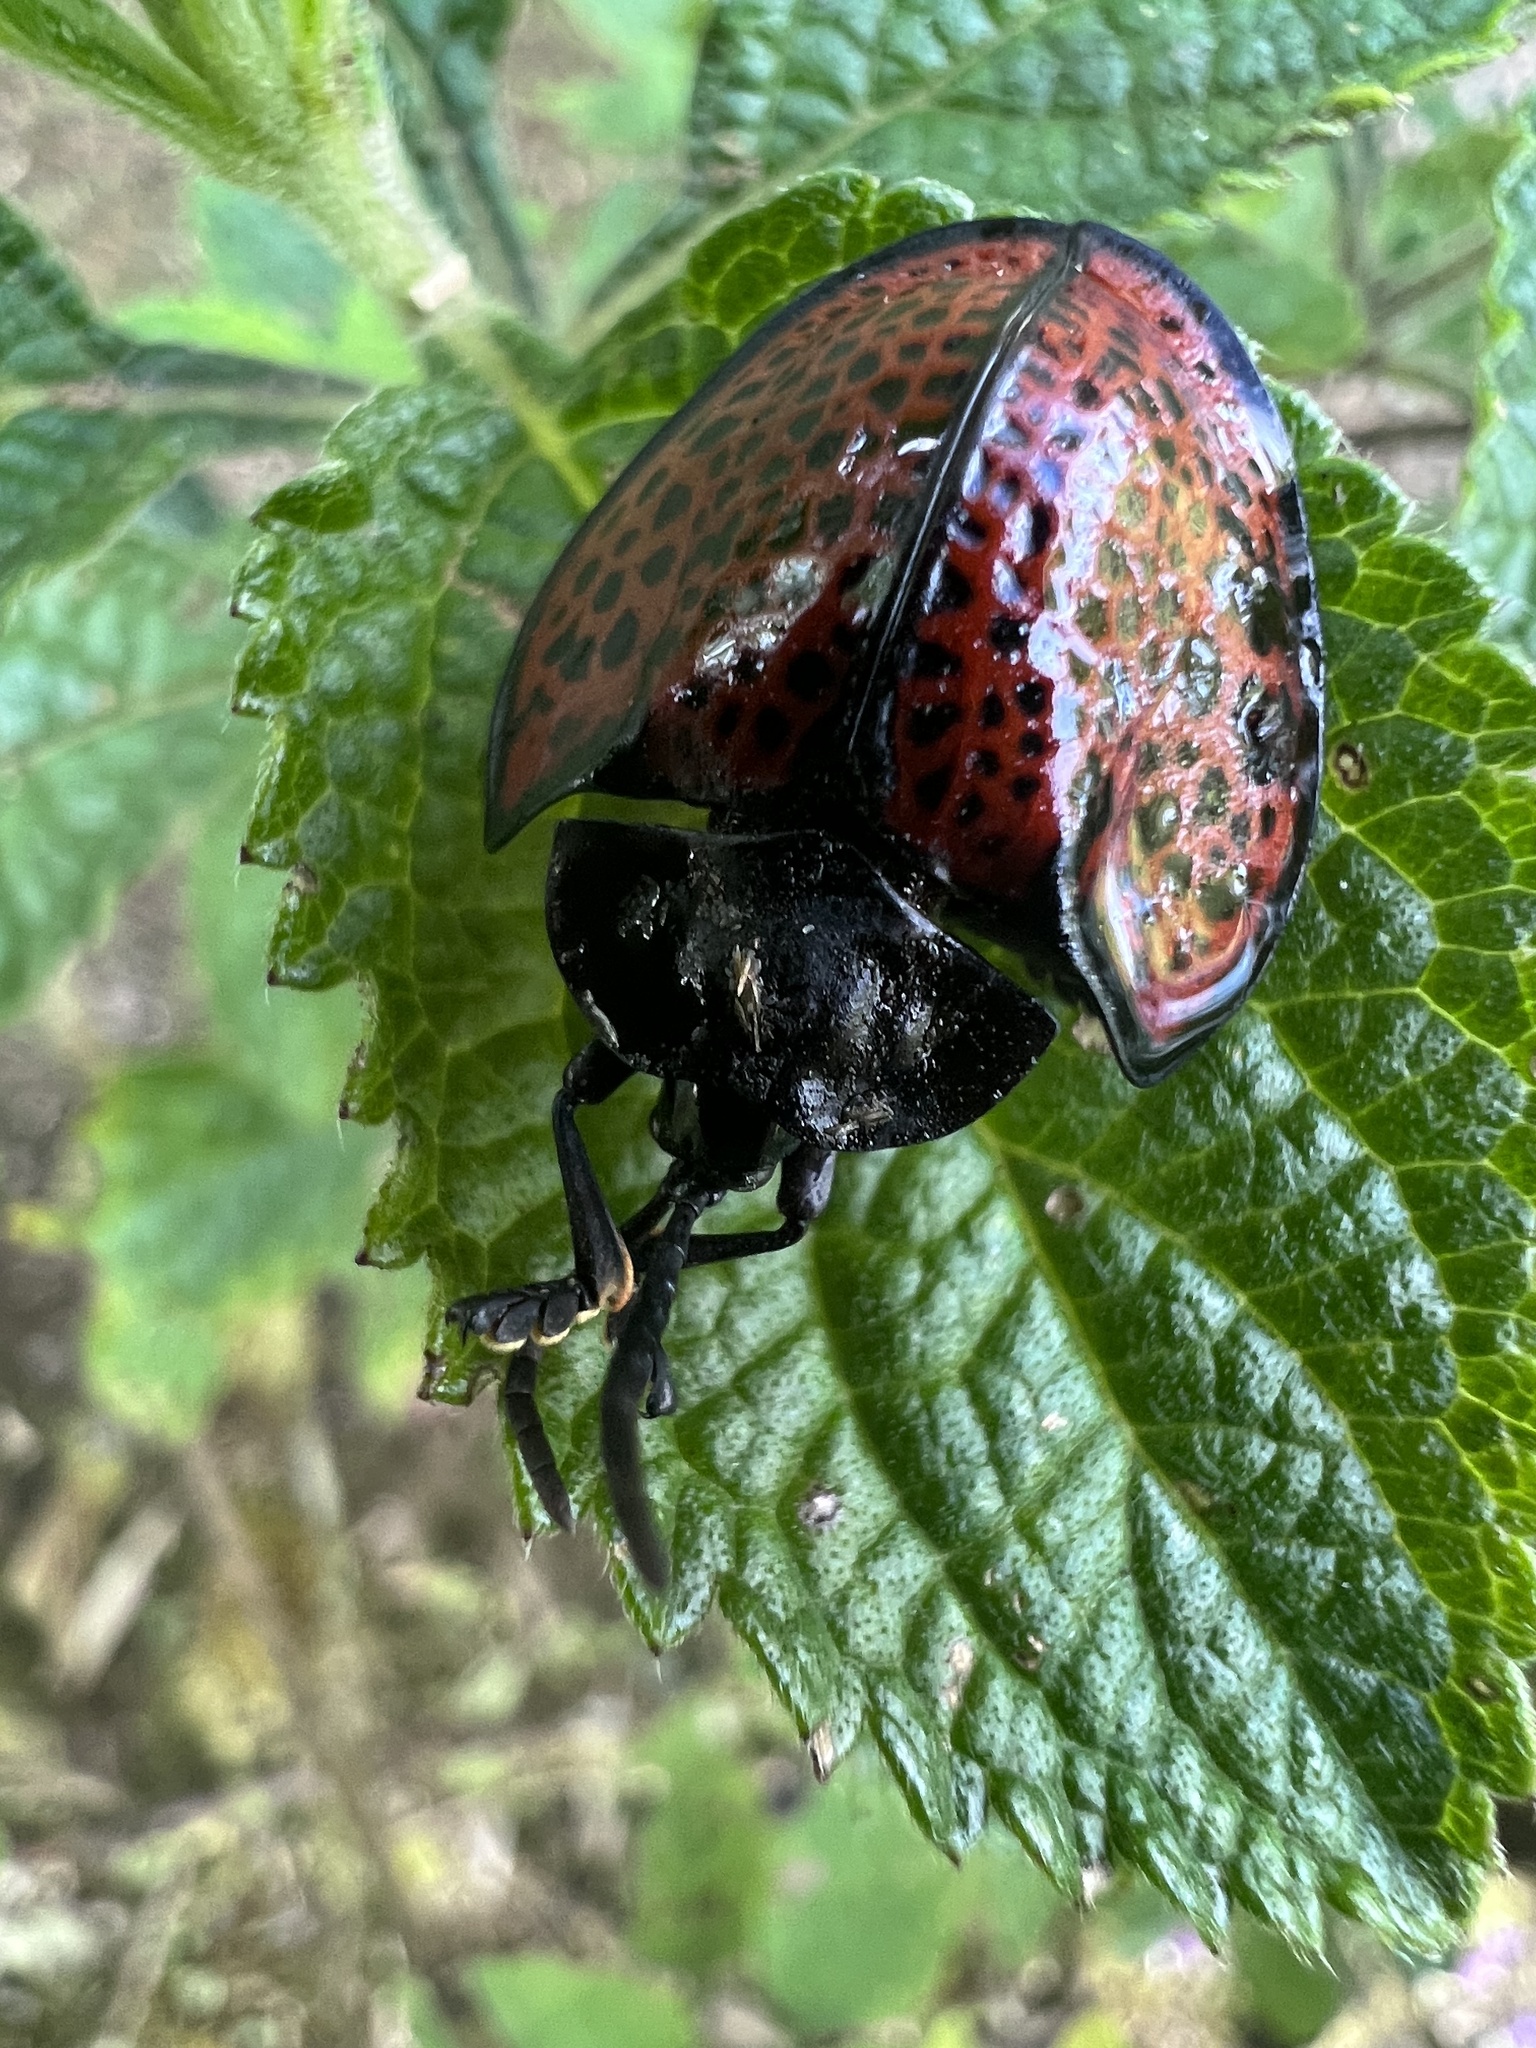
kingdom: Animalia
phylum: Arthropoda
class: Insecta
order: Coleoptera
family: Chrysomelidae
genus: Eugenysa
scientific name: Eugenysa columbiana
